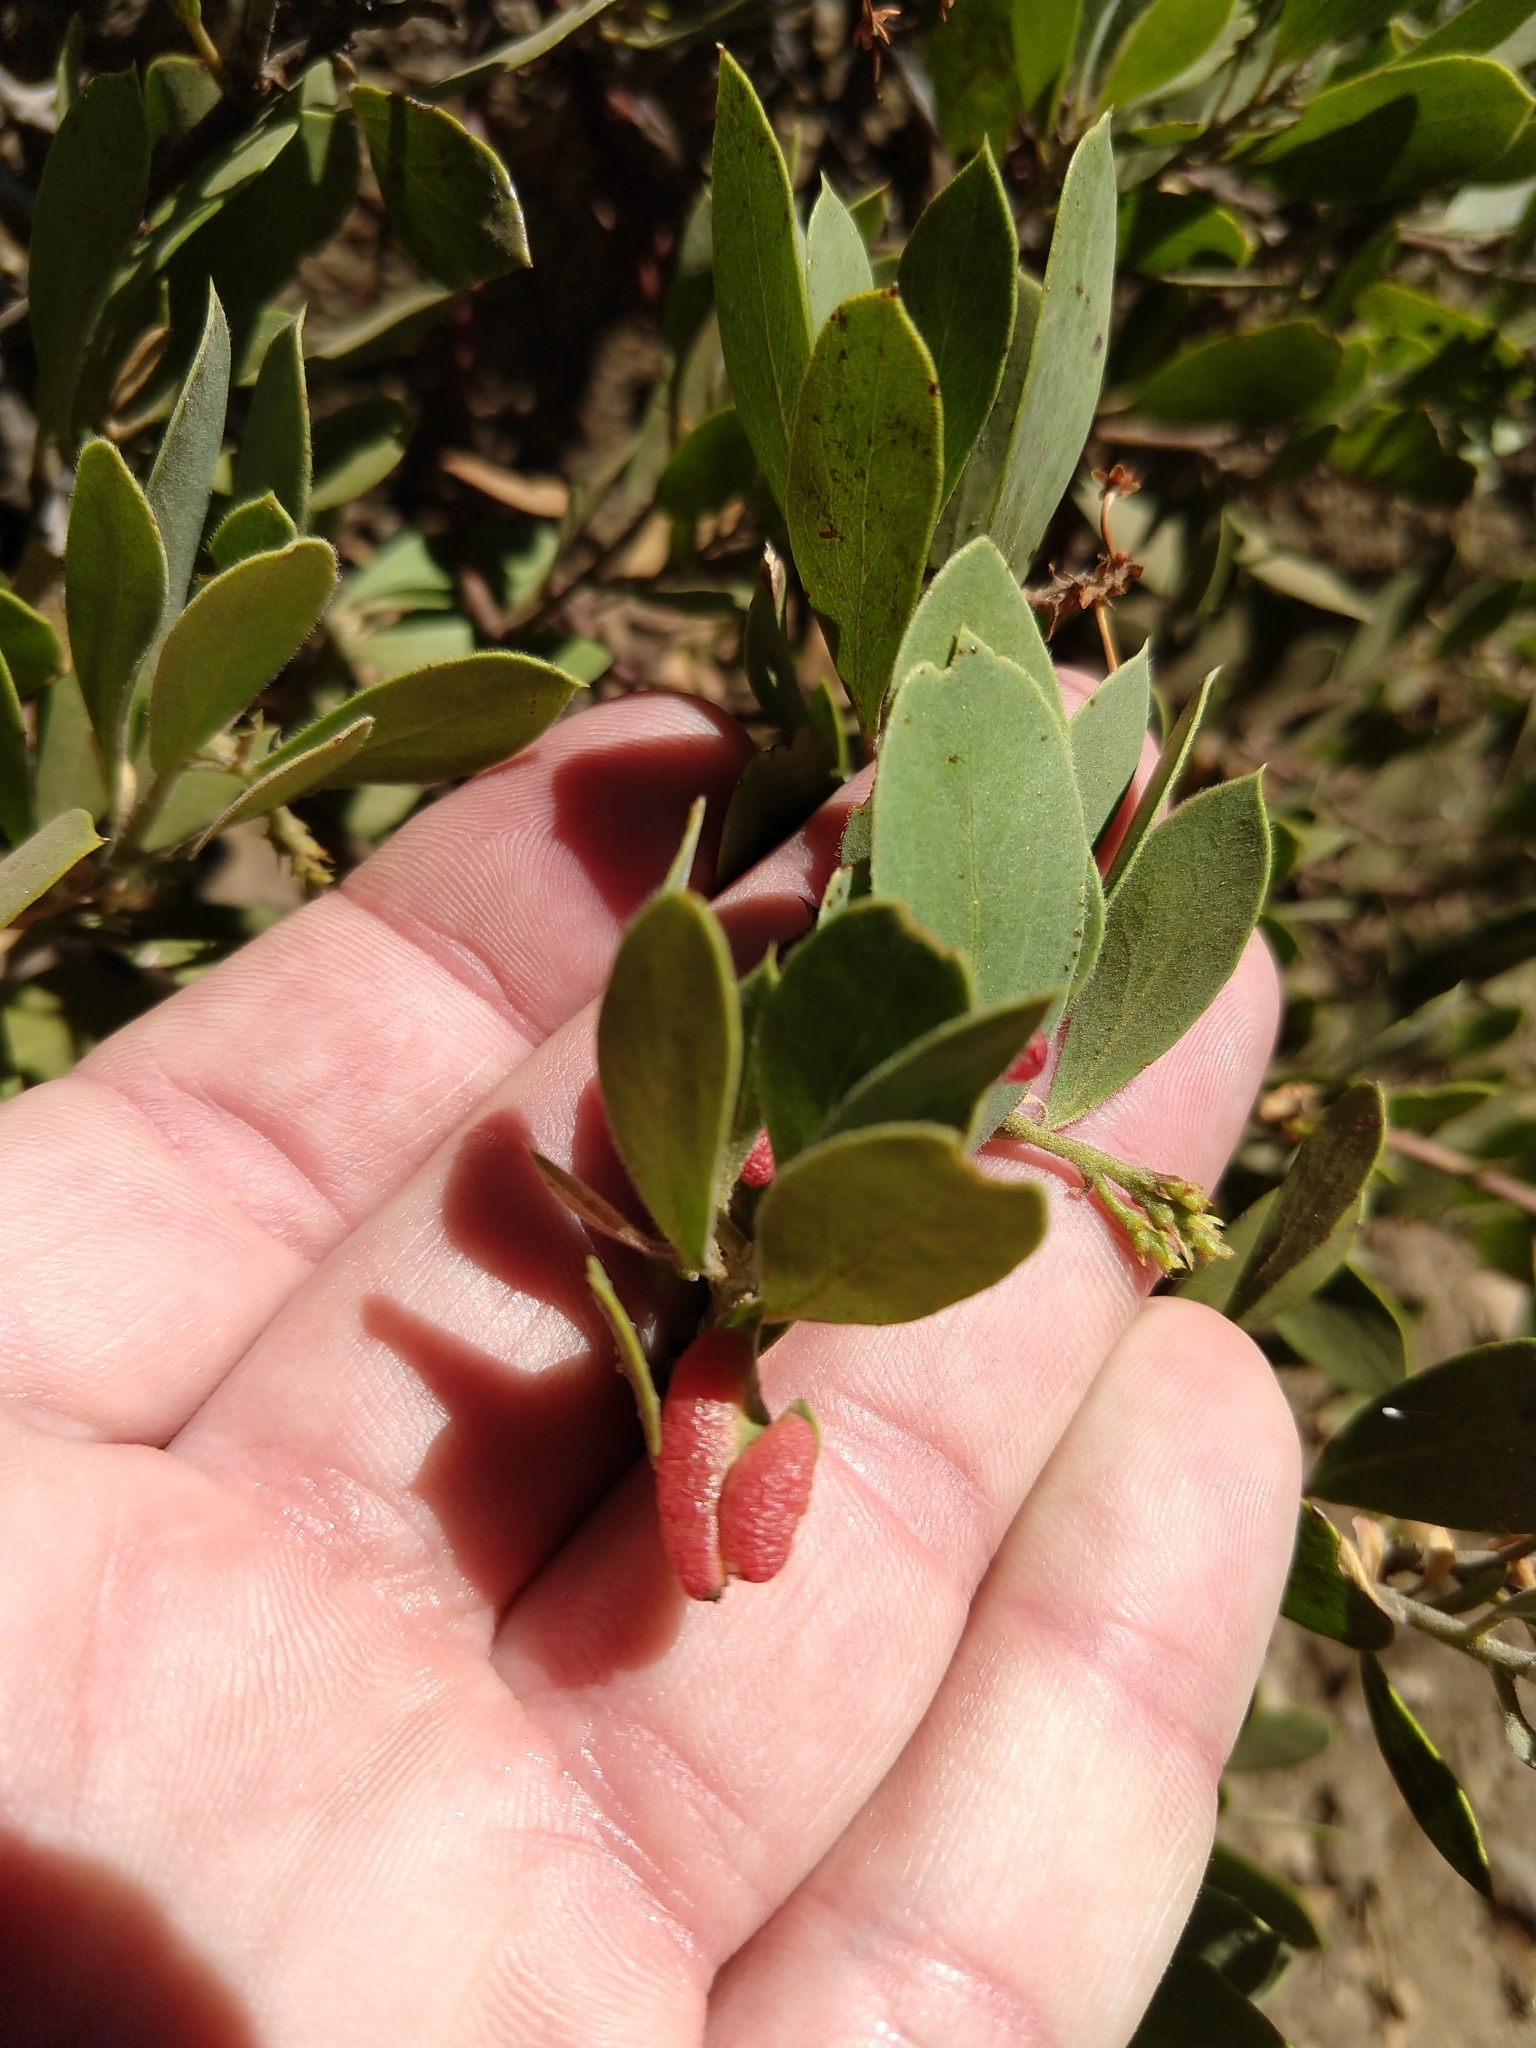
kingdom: Animalia
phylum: Arthropoda
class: Insecta
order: Hemiptera
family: Aphididae
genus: Tamalia
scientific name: Tamalia coweni
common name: Manzanita leafgall aphid
